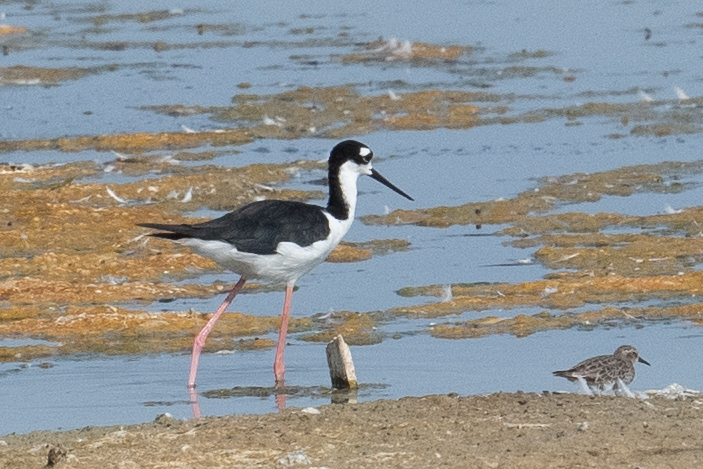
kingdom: Animalia
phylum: Chordata
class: Aves
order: Charadriiformes
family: Recurvirostridae
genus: Himantopus
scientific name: Himantopus mexicanus
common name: Black-necked stilt
